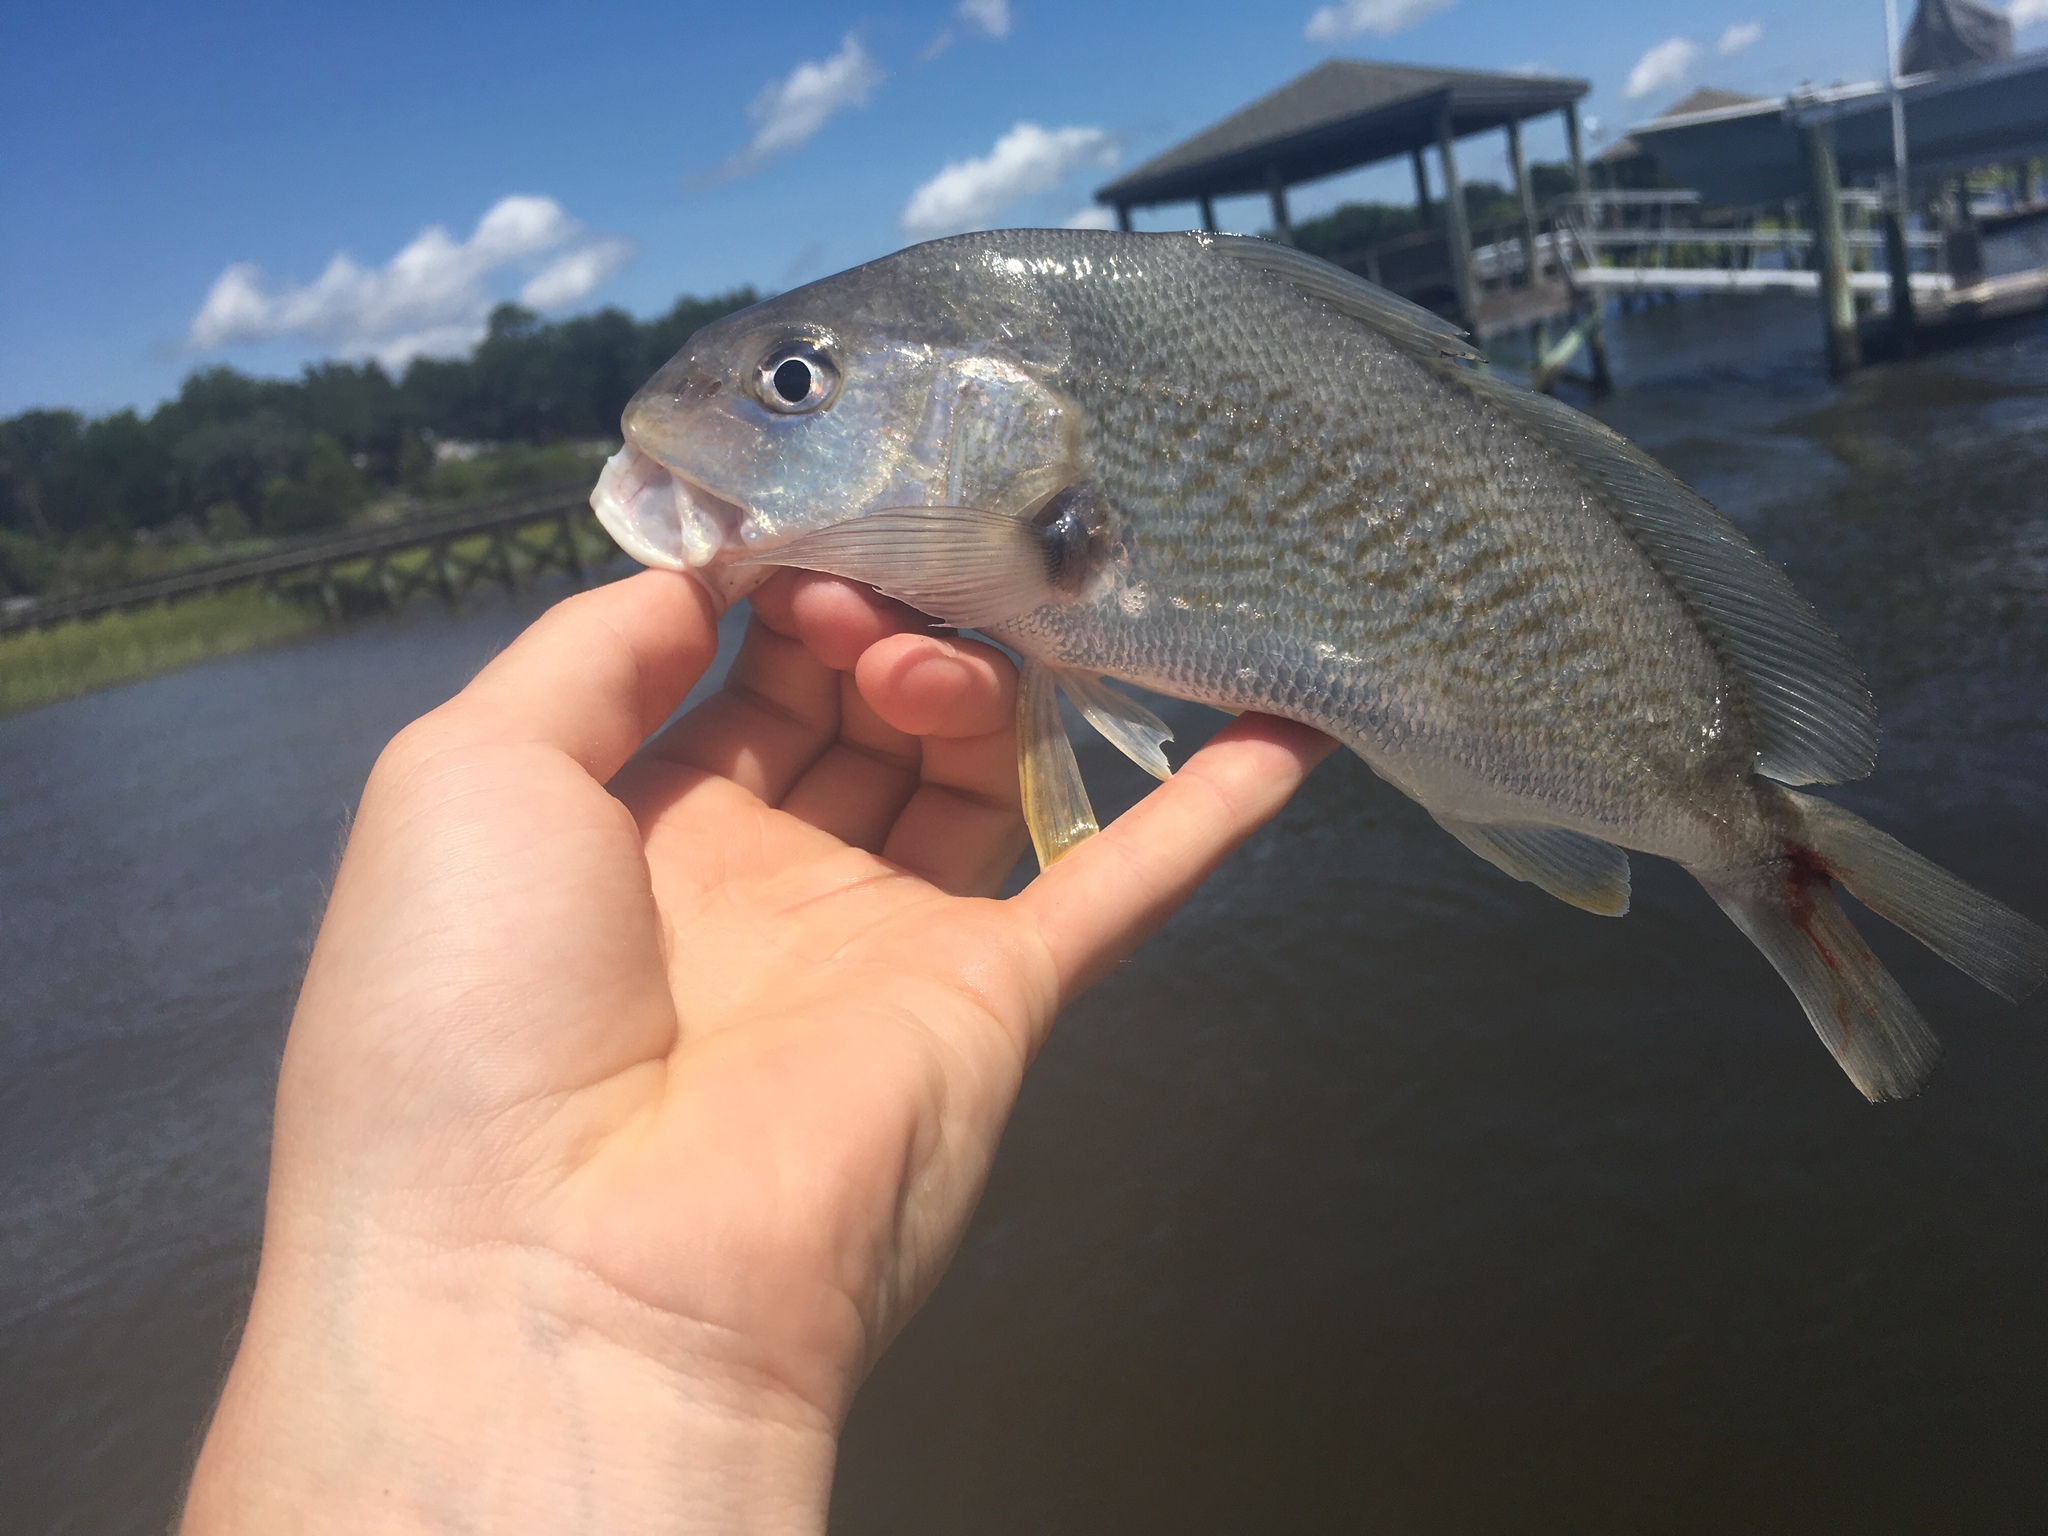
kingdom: Animalia
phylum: Chordata
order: Perciformes
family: Sciaenidae
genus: Micropogonias
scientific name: Micropogonias undulatus
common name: Atlantic croaker
